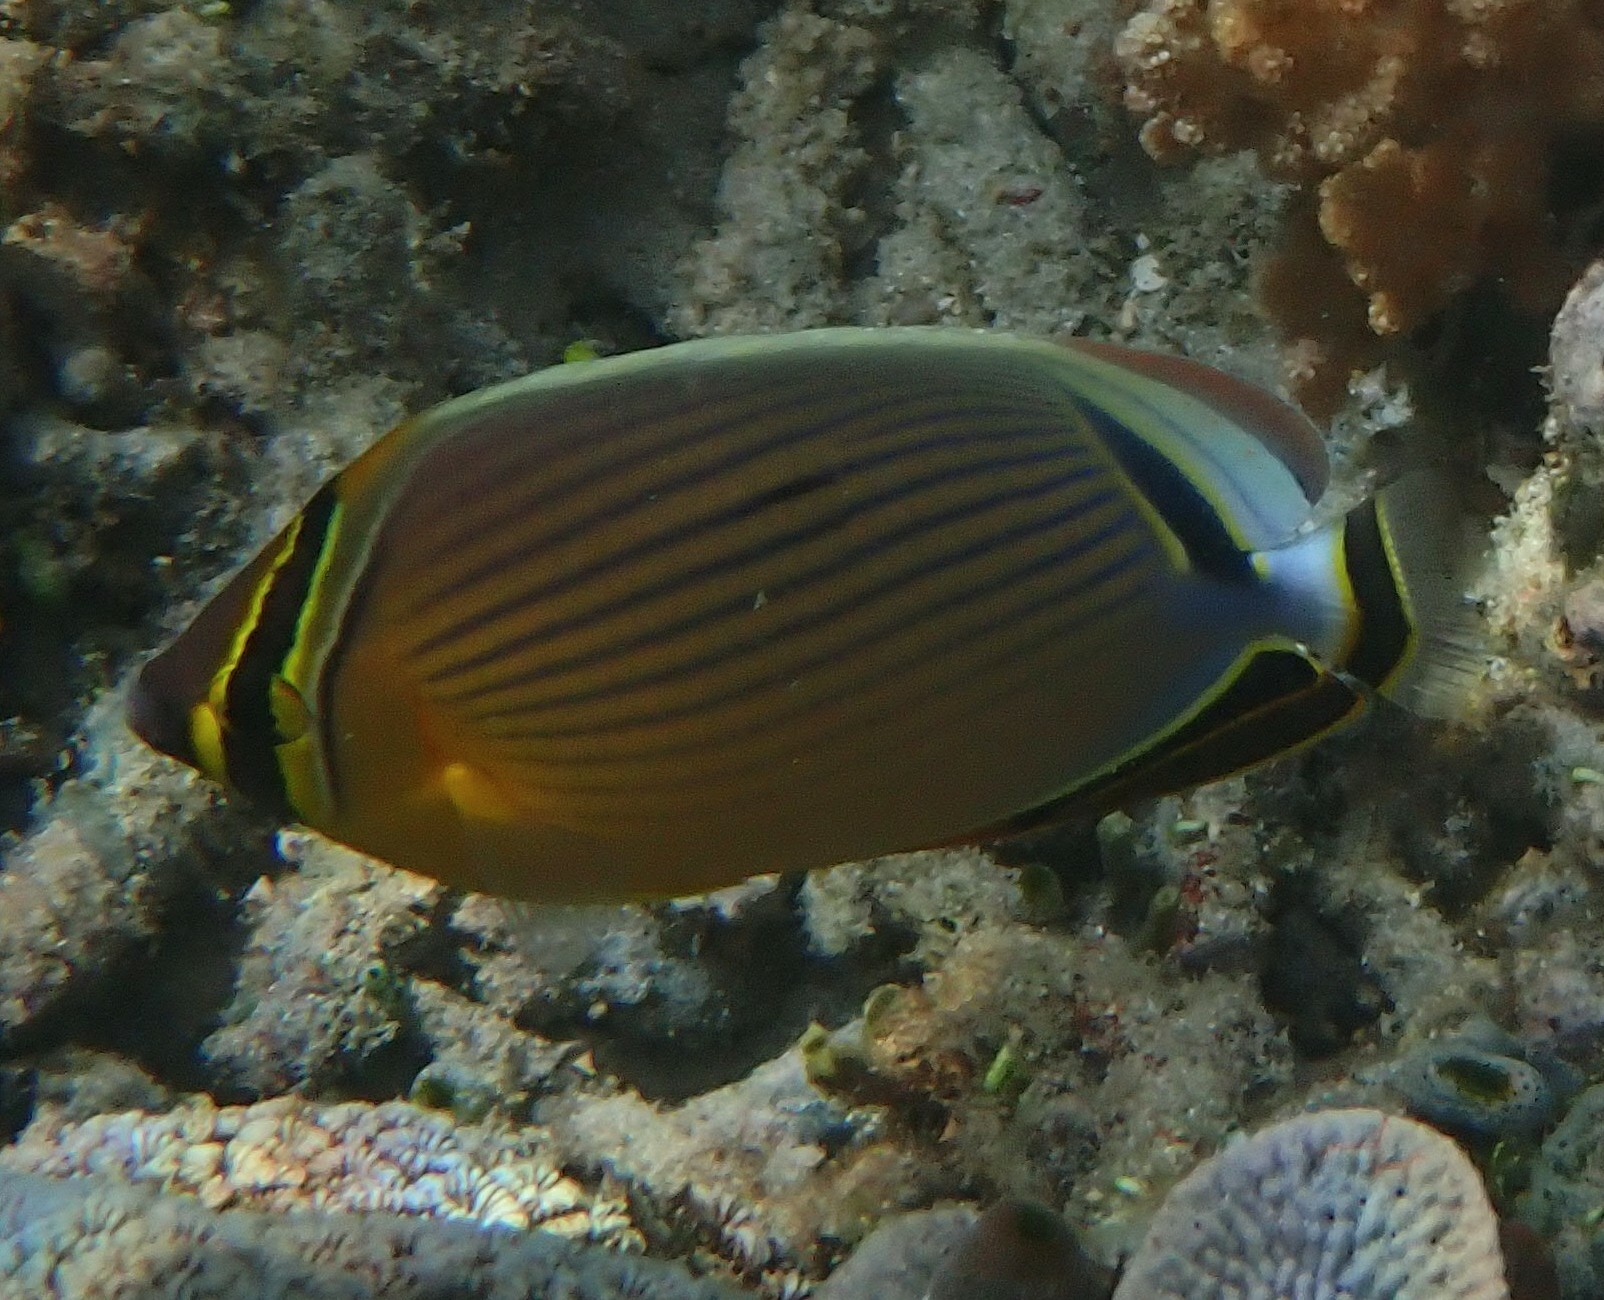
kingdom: Animalia
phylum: Chordata
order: Perciformes
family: Chaetodontidae
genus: Chaetodon
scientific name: Chaetodon lunulatus
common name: Redfin butterflyfish
